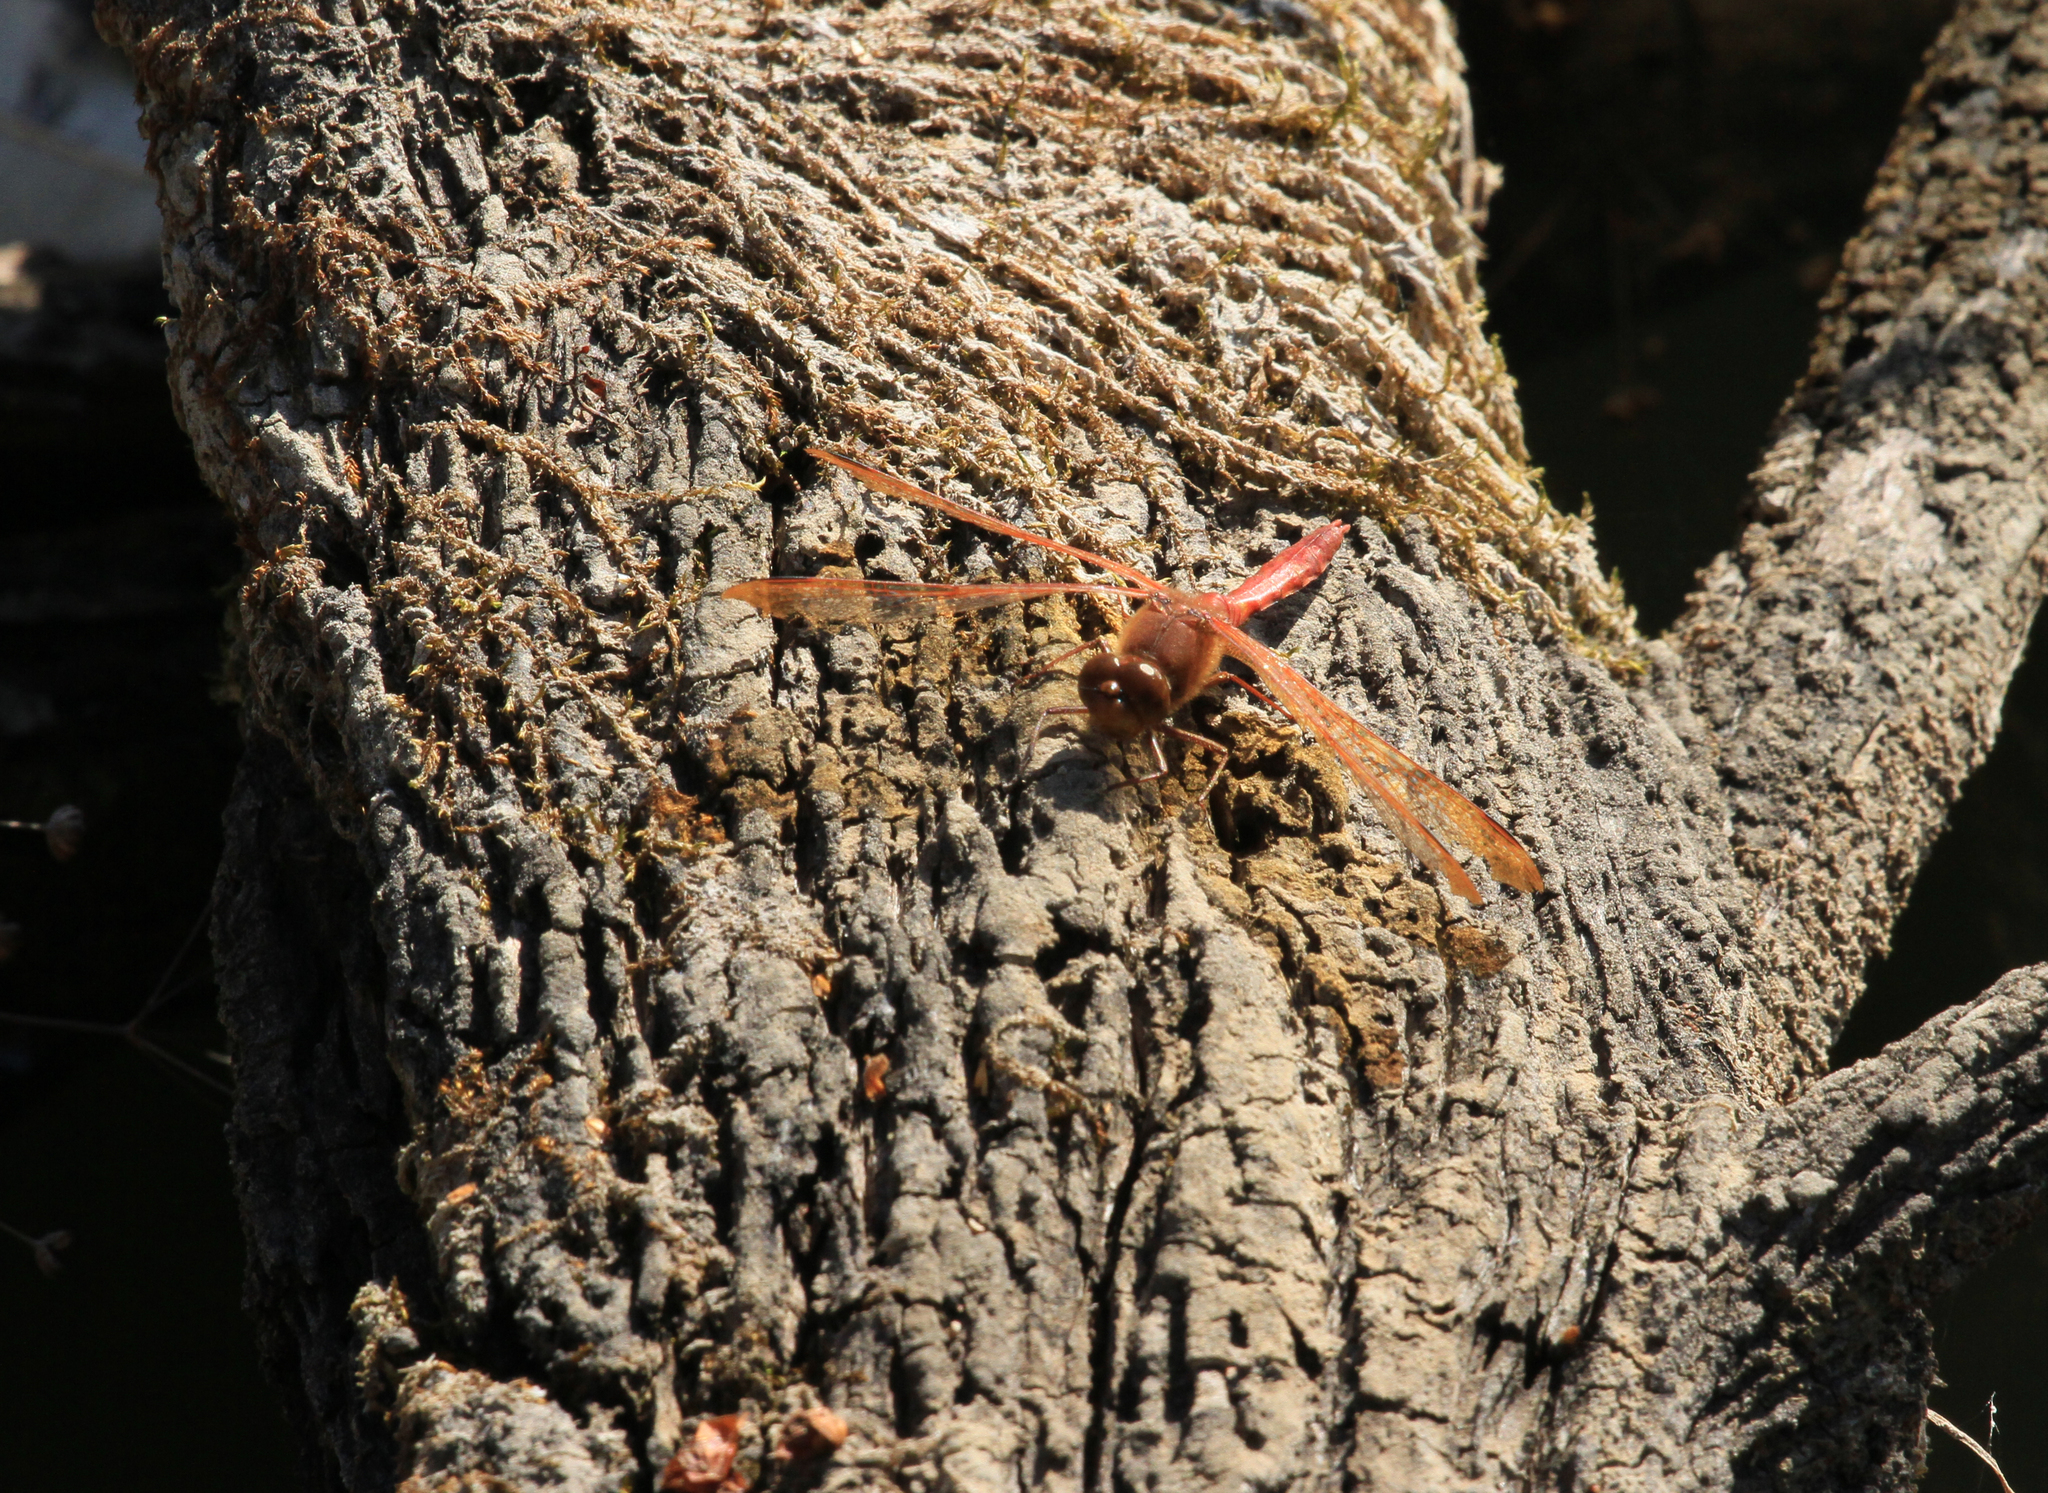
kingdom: Animalia
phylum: Arthropoda
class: Insecta
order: Odonata
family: Libellulidae
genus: Sympetrum
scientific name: Sympetrum croceolum
